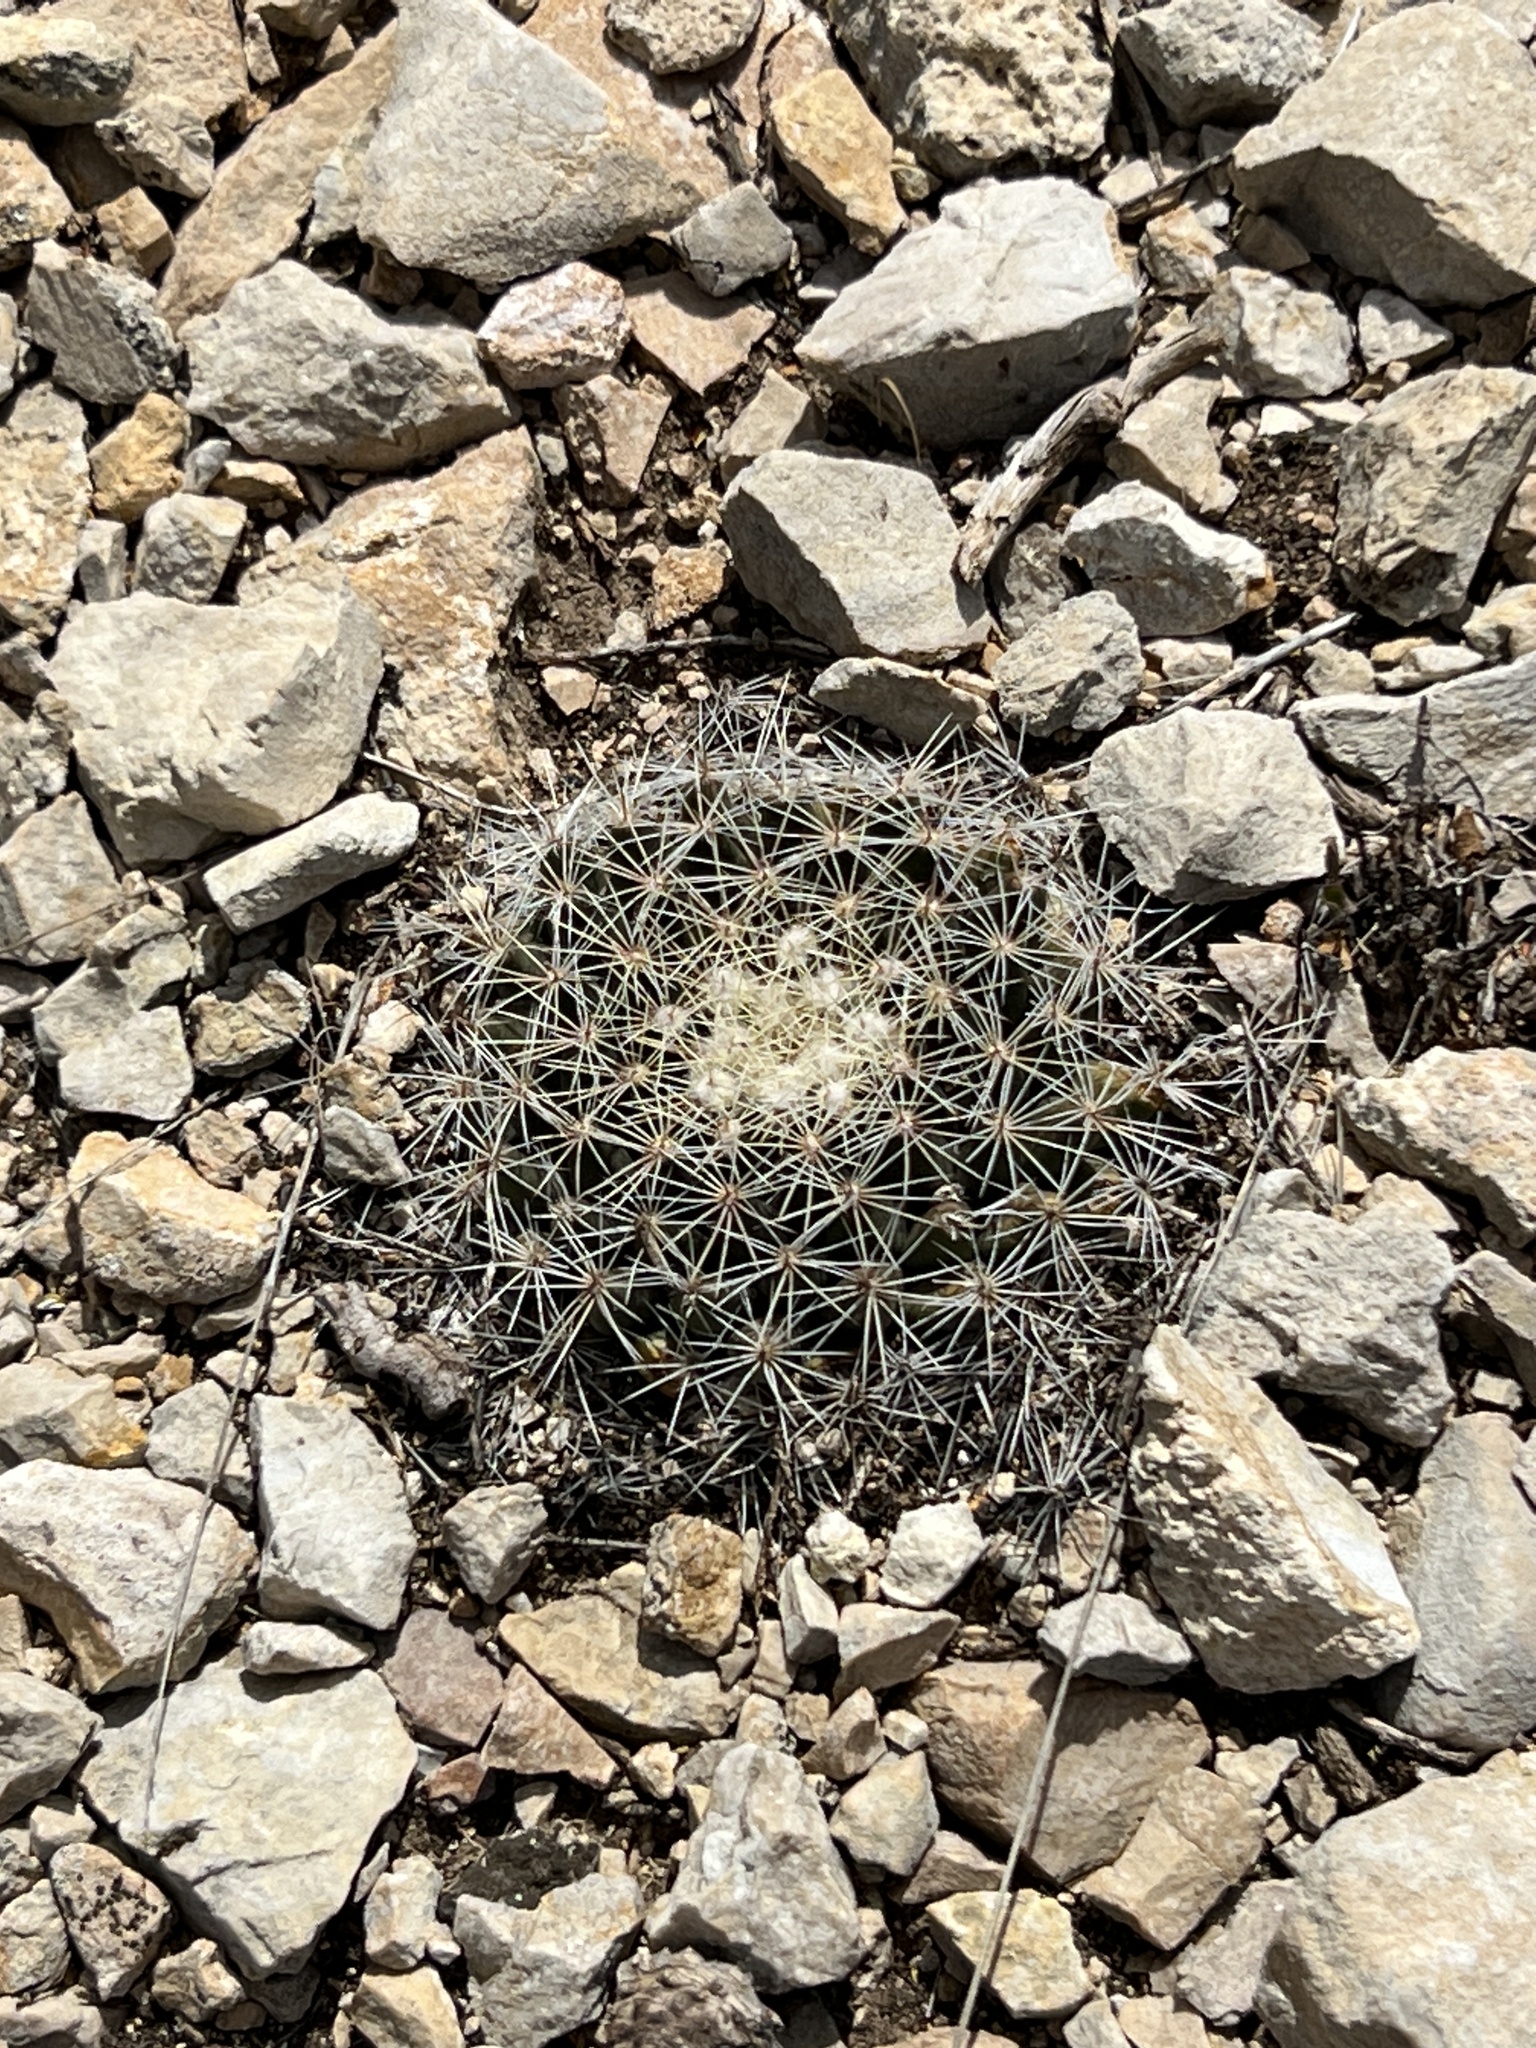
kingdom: Plantae
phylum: Tracheophyta
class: Magnoliopsida
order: Caryophyllales
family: Cactaceae
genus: Mammillaria
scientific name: Mammillaria heyderi
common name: Little nipple cactus
